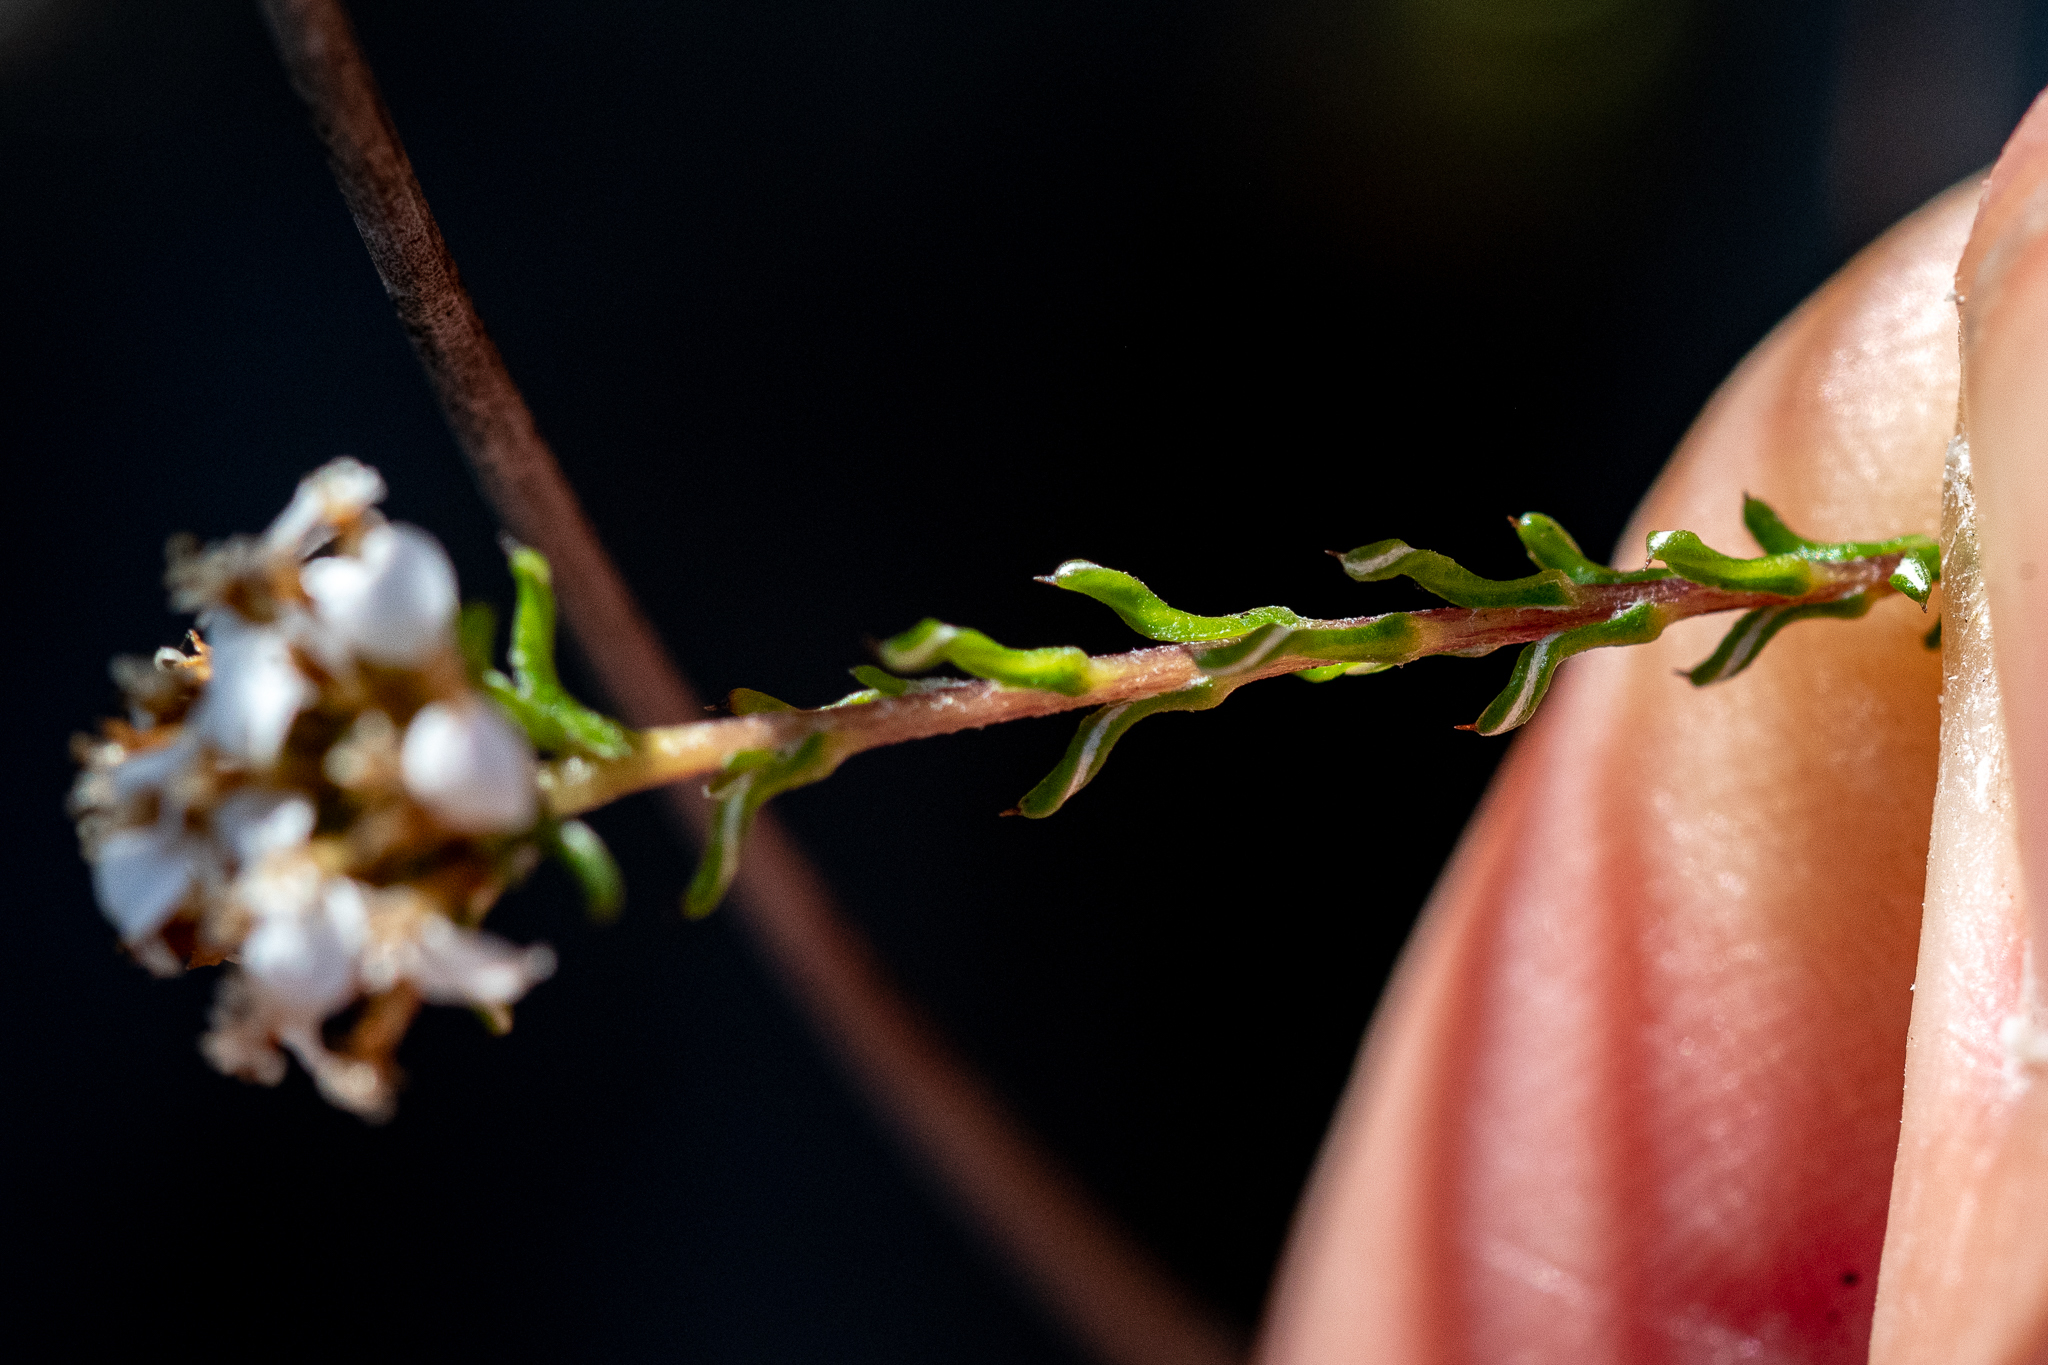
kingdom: Plantae
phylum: Tracheophyta
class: Magnoliopsida
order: Asterales
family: Asteraceae
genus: Disparago
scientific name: Disparago ericoides
